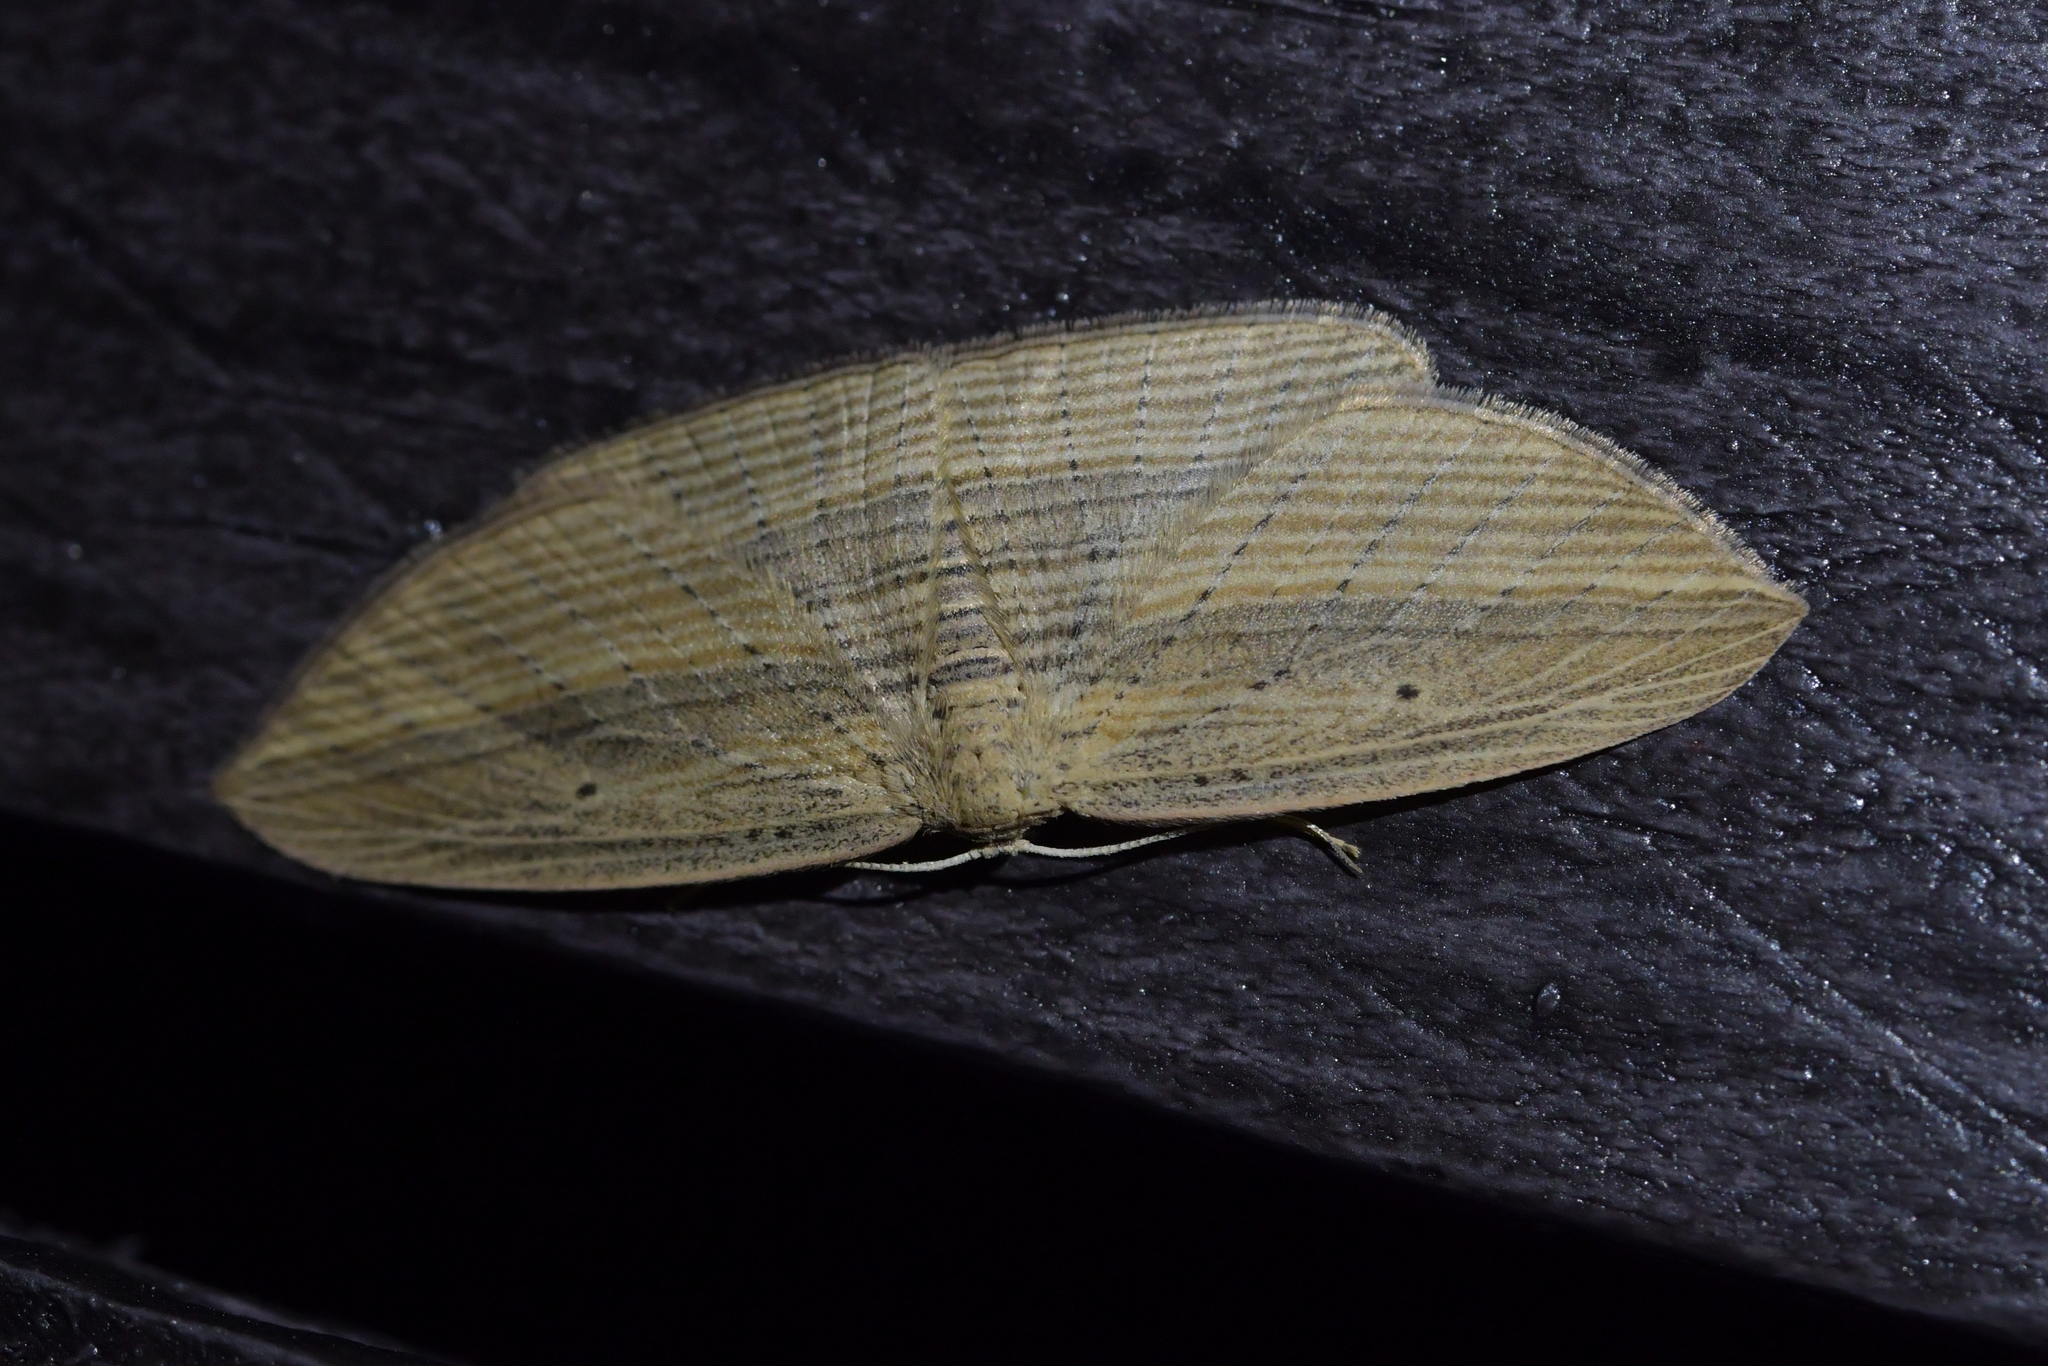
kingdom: Animalia
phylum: Arthropoda
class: Insecta
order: Lepidoptera
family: Geometridae
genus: Epiphryne
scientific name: Epiphryne verriculata
